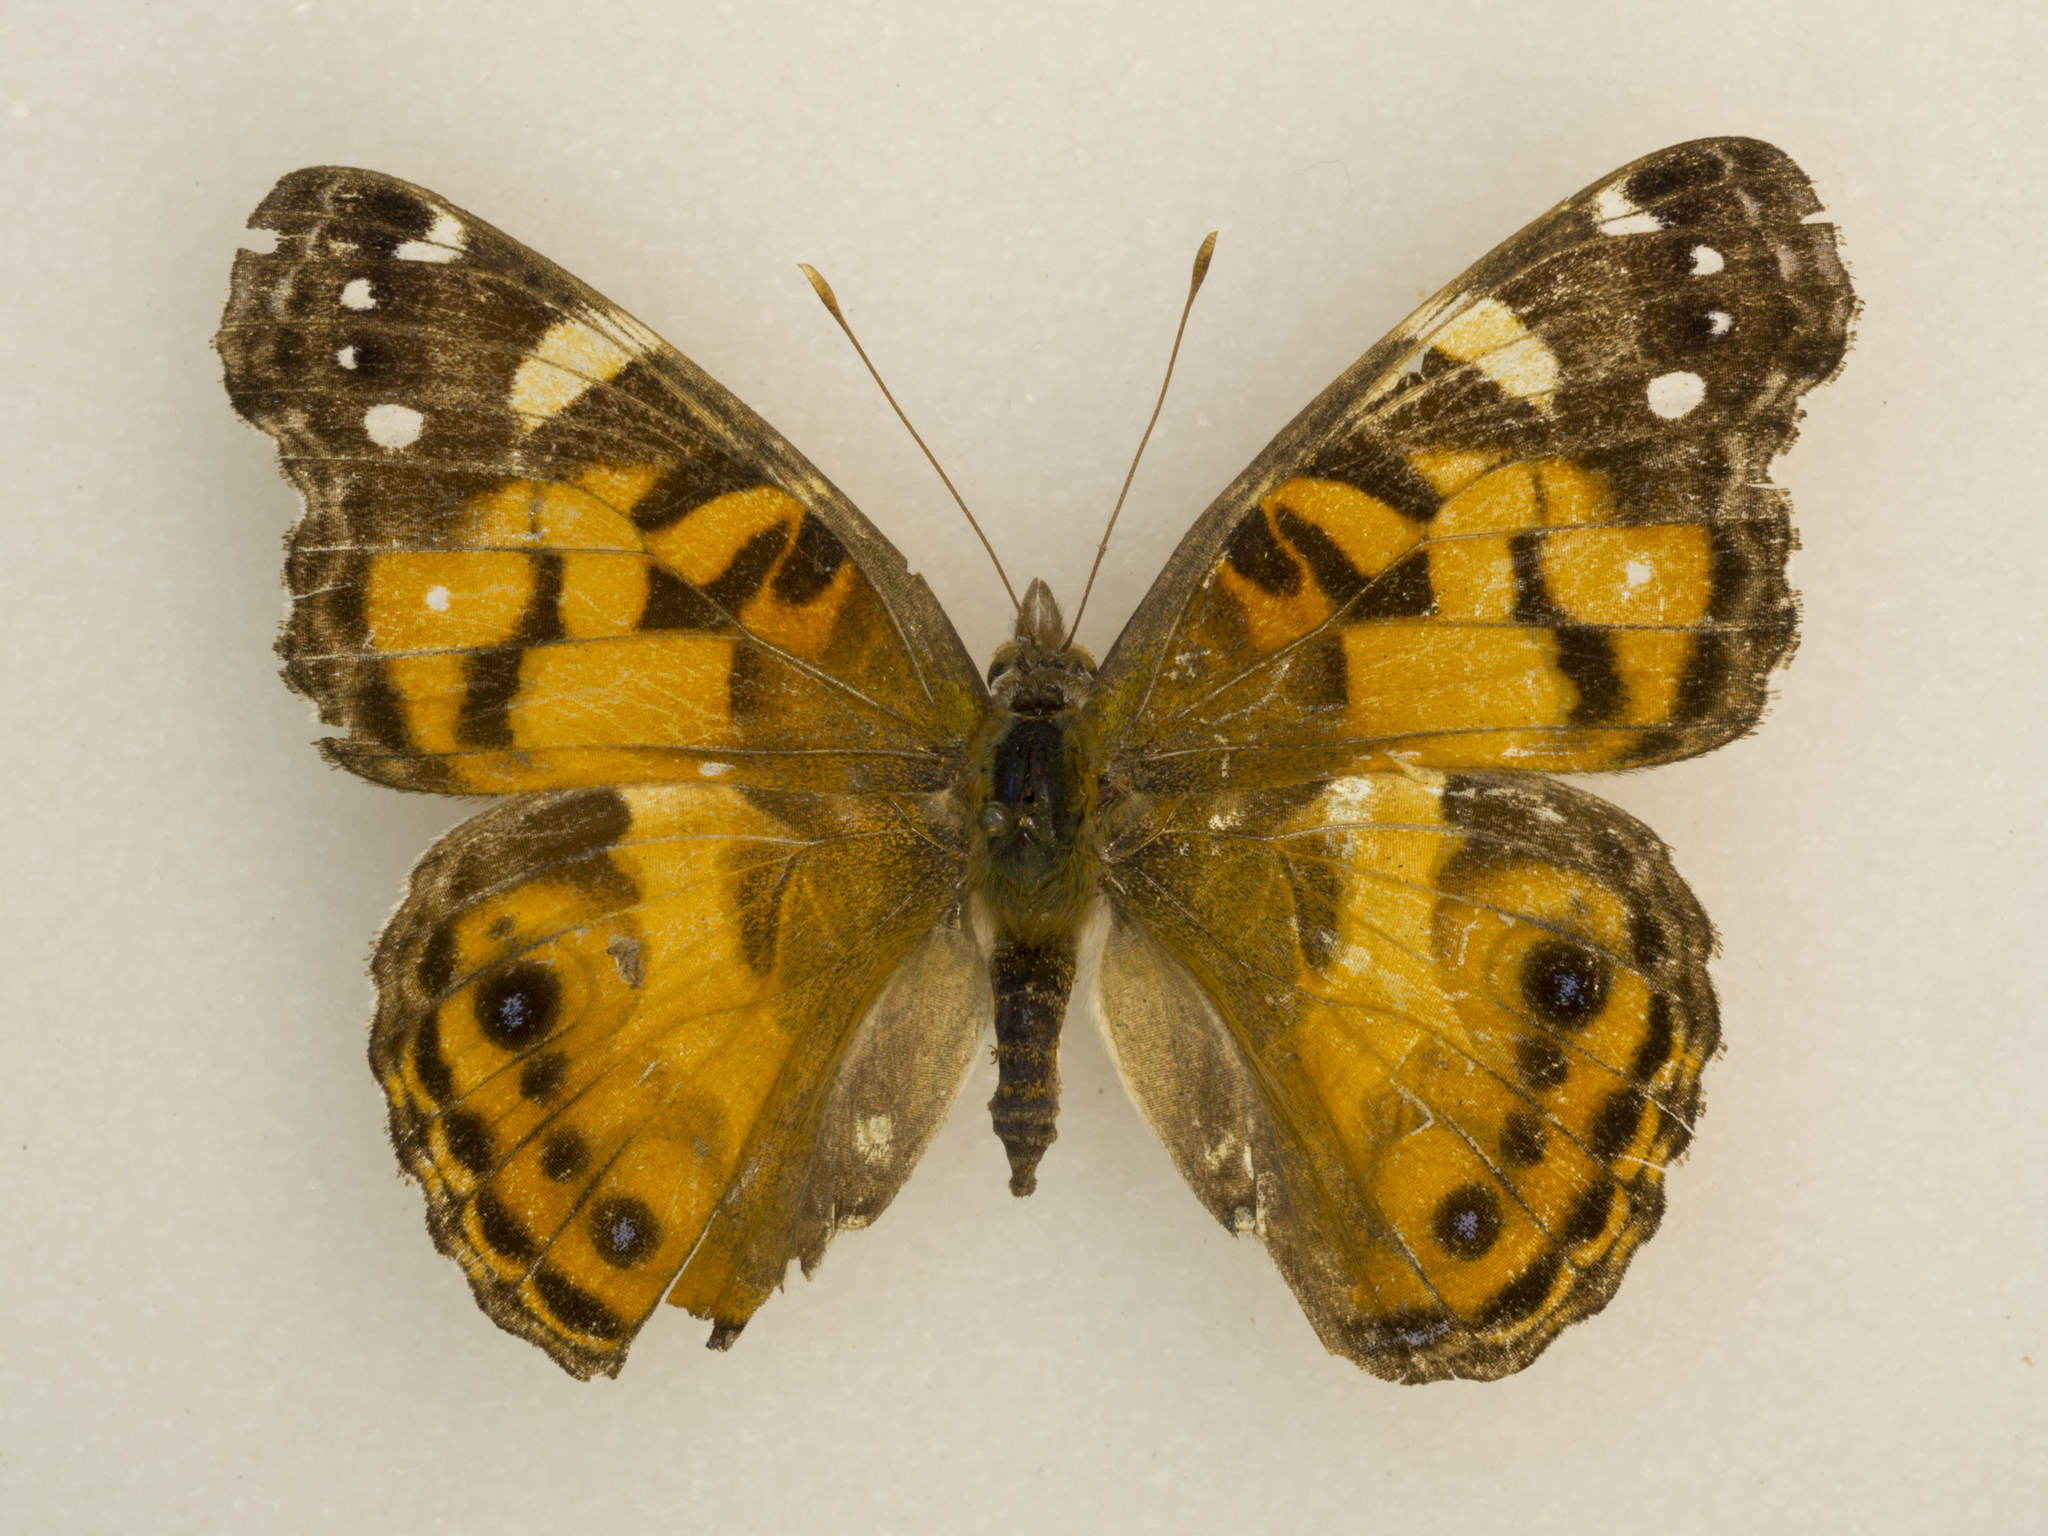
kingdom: Animalia
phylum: Arthropoda
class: Insecta
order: Lepidoptera
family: Nymphalidae
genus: Vanessa
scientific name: Vanessa virginiensis
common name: American lady
